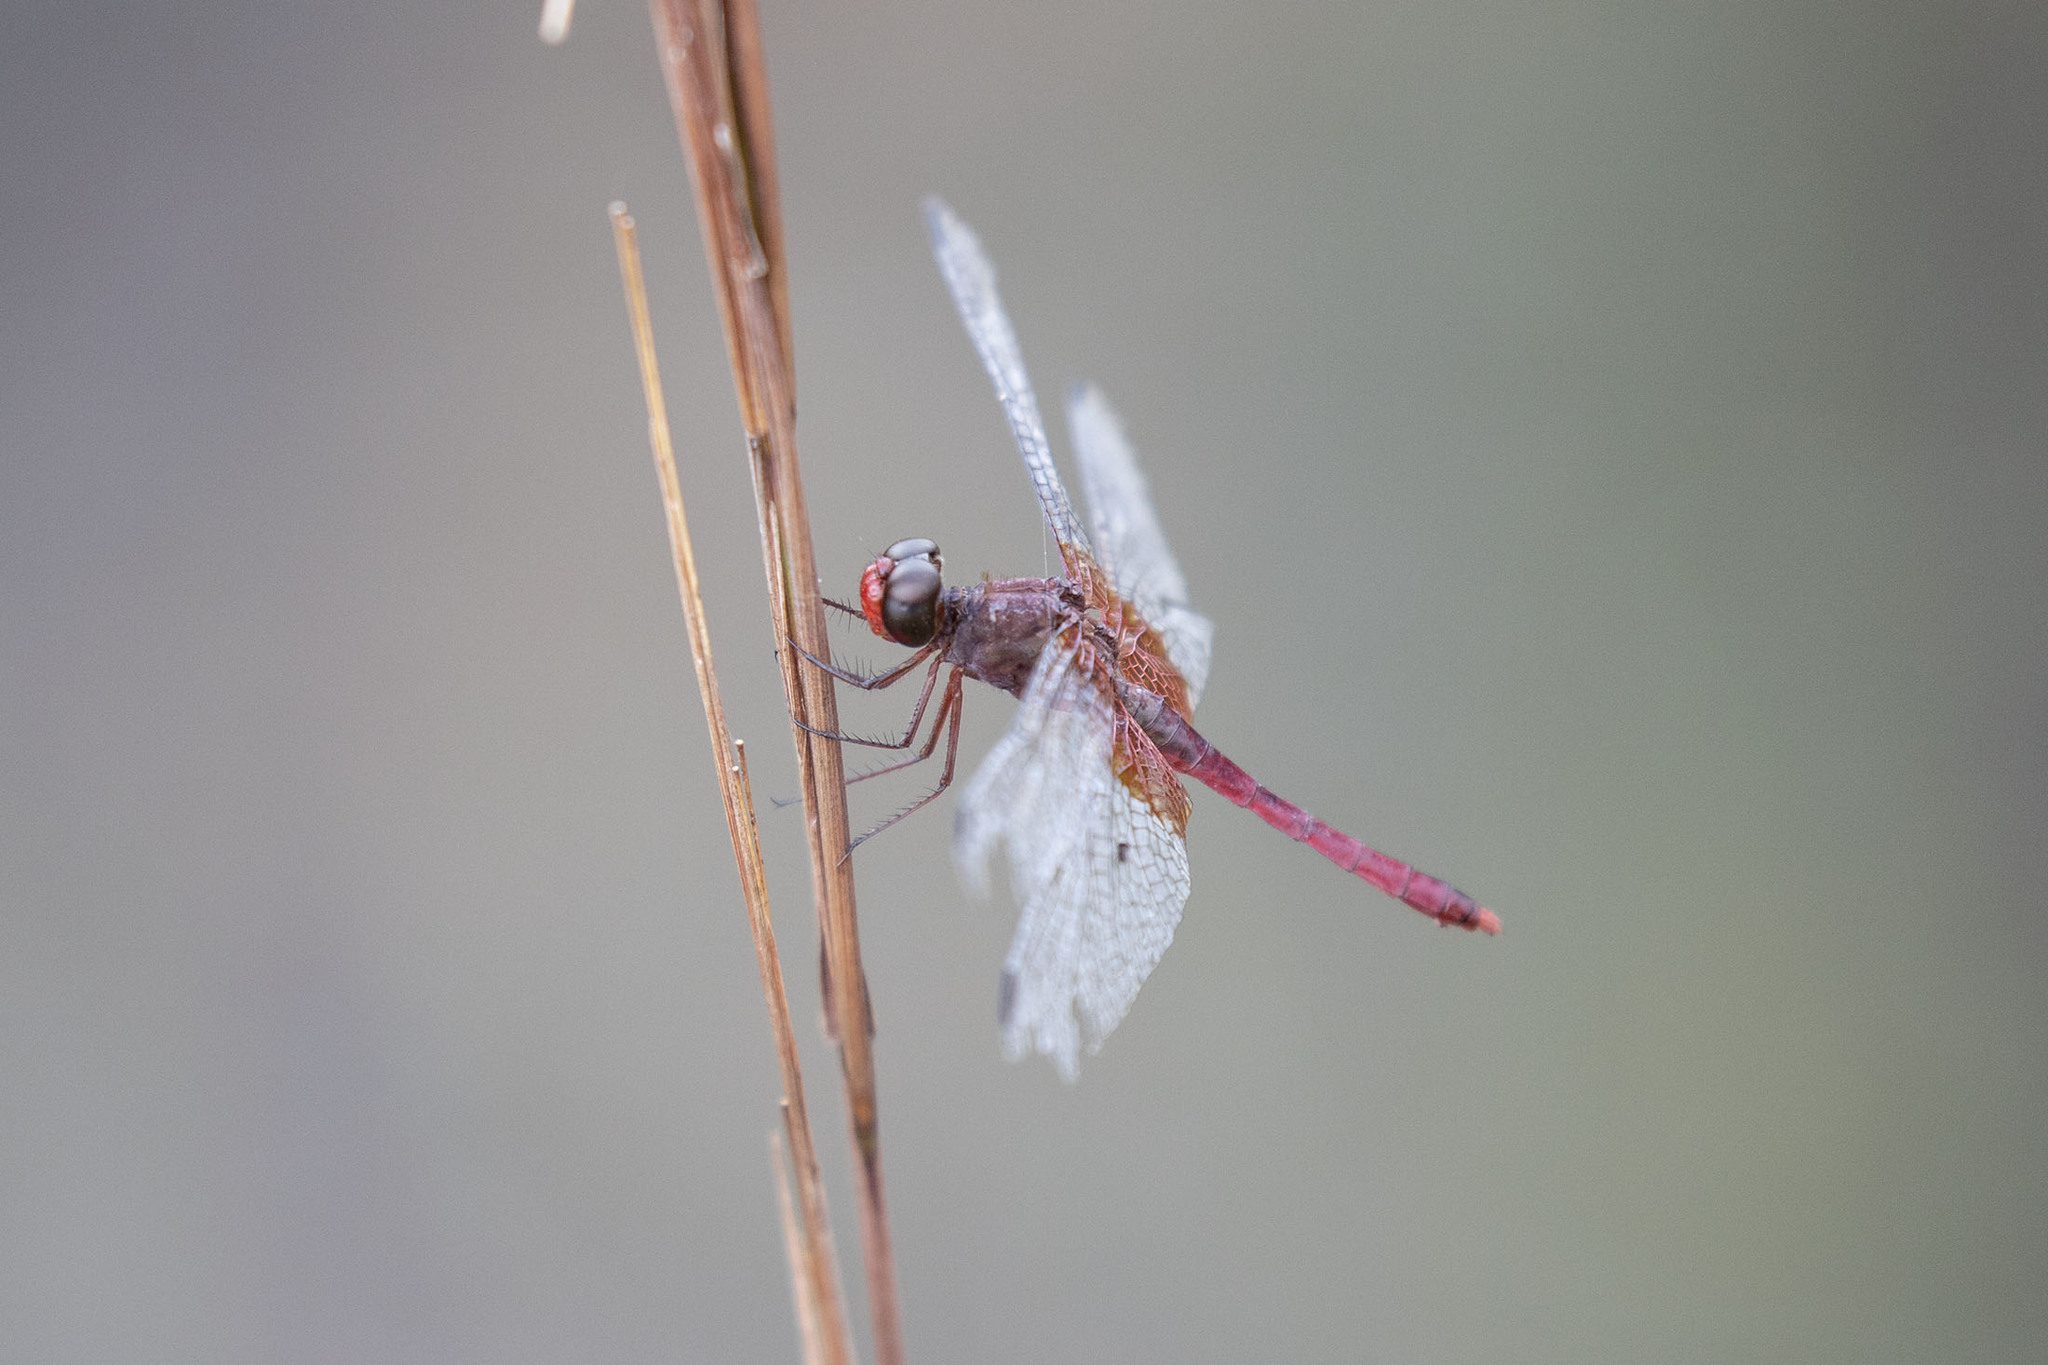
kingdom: Animalia
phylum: Arthropoda
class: Insecta
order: Odonata
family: Libellulidae
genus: Erythrodiplax
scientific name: Erythrodiplax famula
